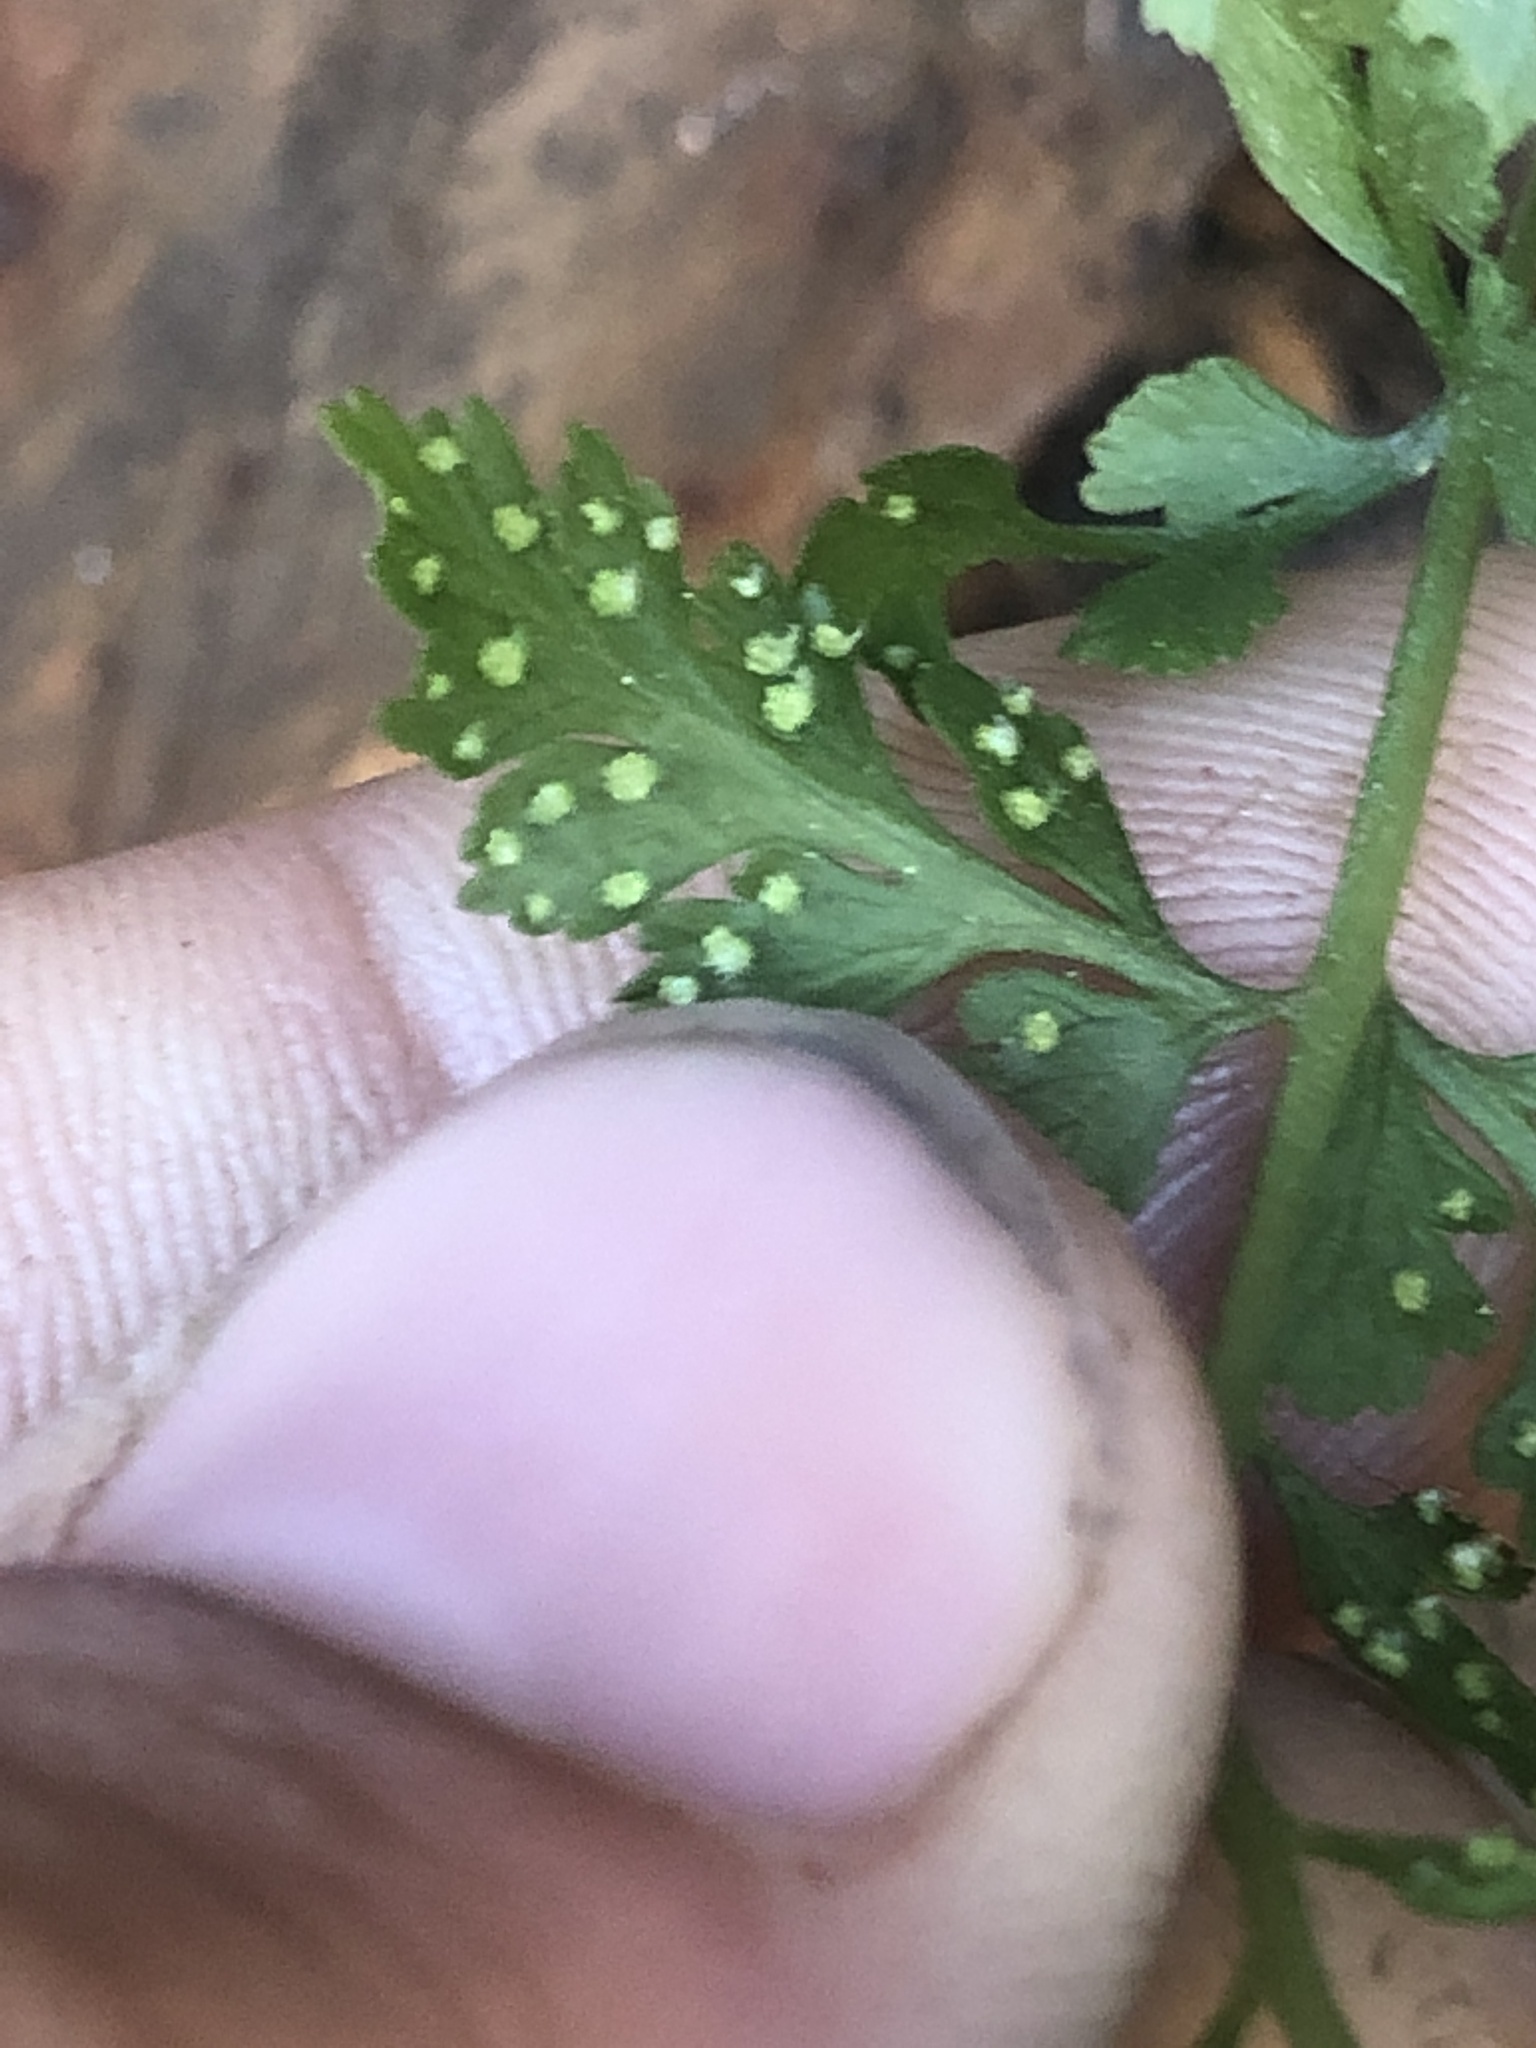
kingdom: Plantae
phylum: Tracheophyta
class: Polypodiopsida
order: Polypodiales
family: Cystopteridaceae
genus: Cystopteris
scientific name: Cystopteris fragilis
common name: Brittle bladder fern
